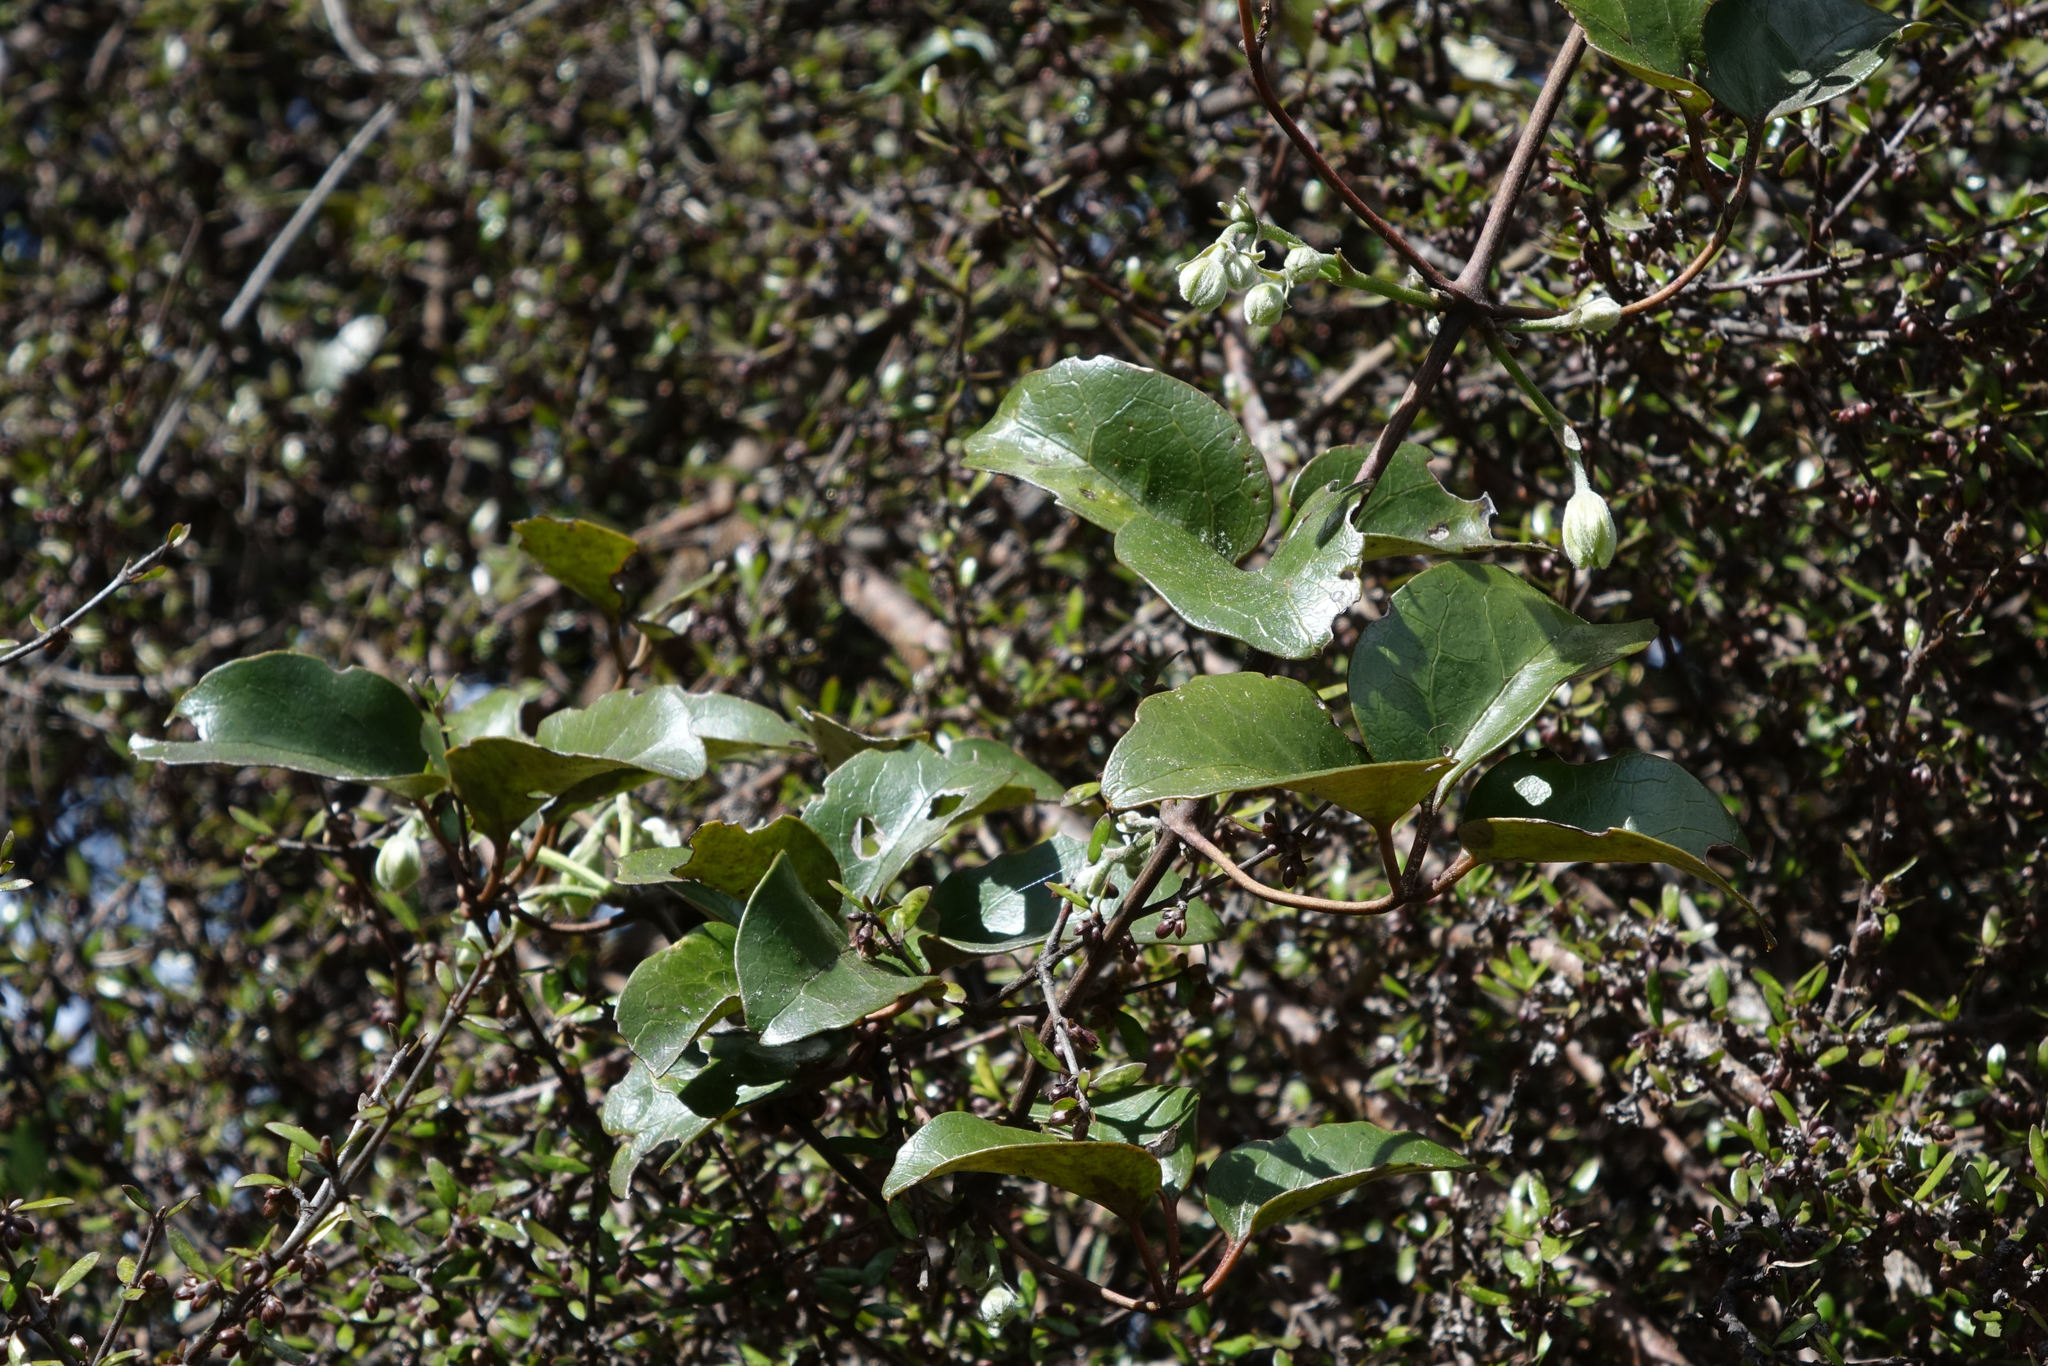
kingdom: Plantae
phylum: Tracheophyta
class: Magnoliopsida
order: Ranunculales
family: Ranunculaceae
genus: Clematis
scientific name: Clematis paniculata
